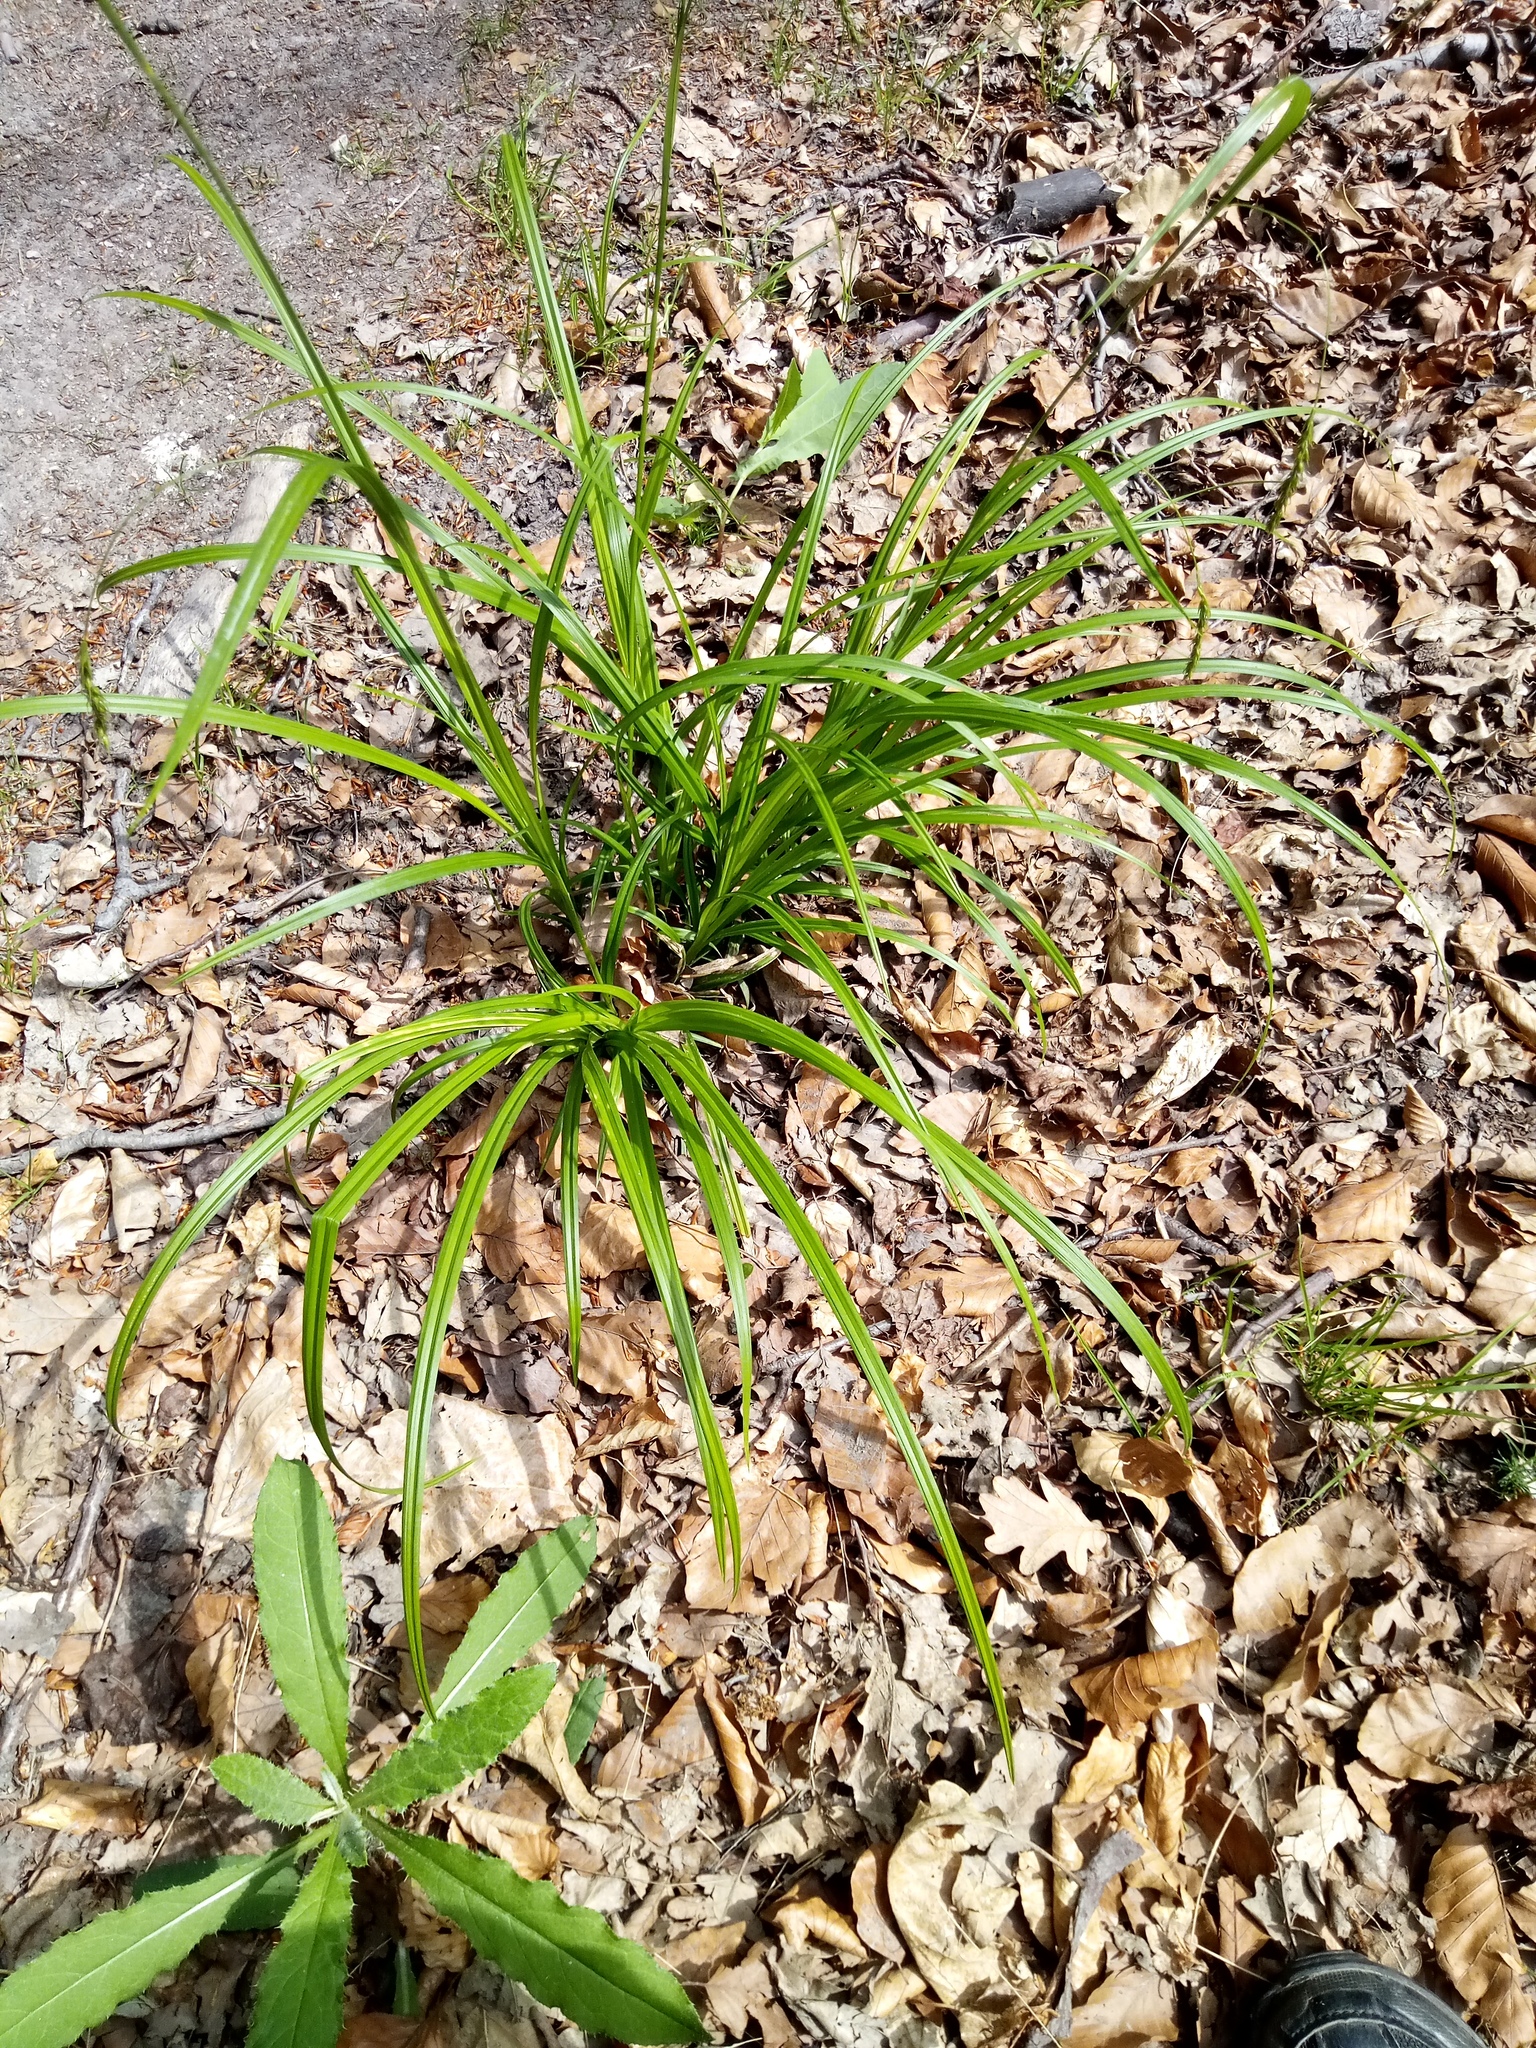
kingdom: Plantae
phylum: Tracheophyta
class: Liliopsida
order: Poales
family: Cyperaceae
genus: Carex
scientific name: Carex sylvatica
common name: Wood-sedge
